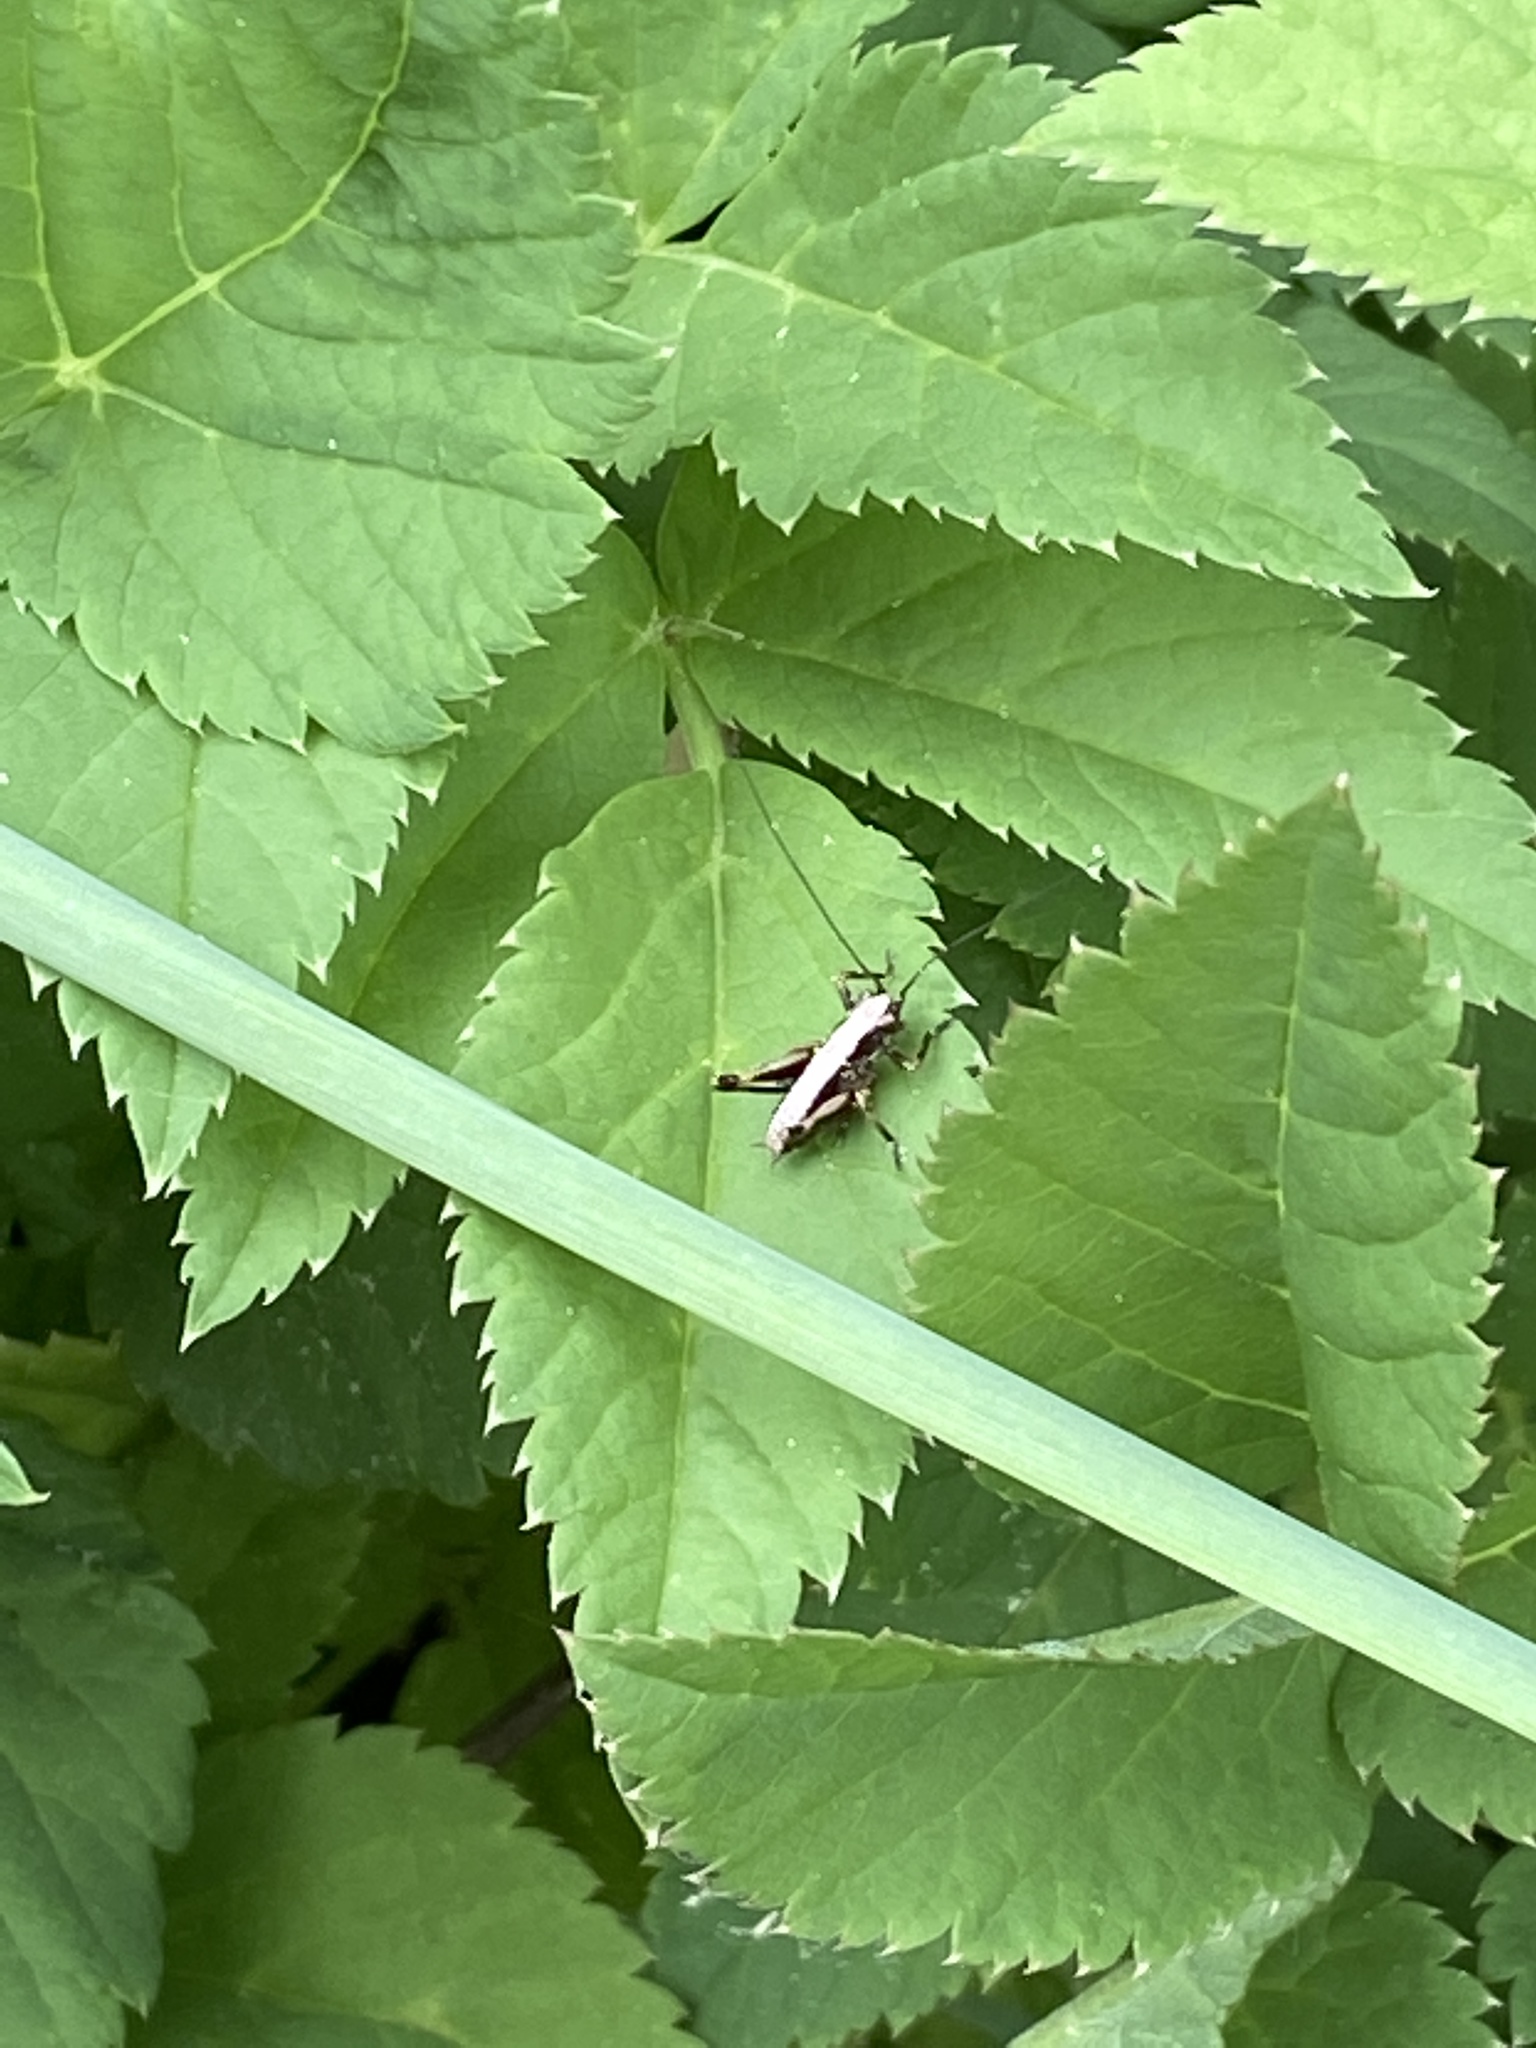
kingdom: Animalia
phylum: Arthropoda
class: Insecta
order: Orthoptera
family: Tettigoniidae
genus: Pholidoptera
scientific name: Pholidoptera griseoaptera
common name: Dark bush-cricket
